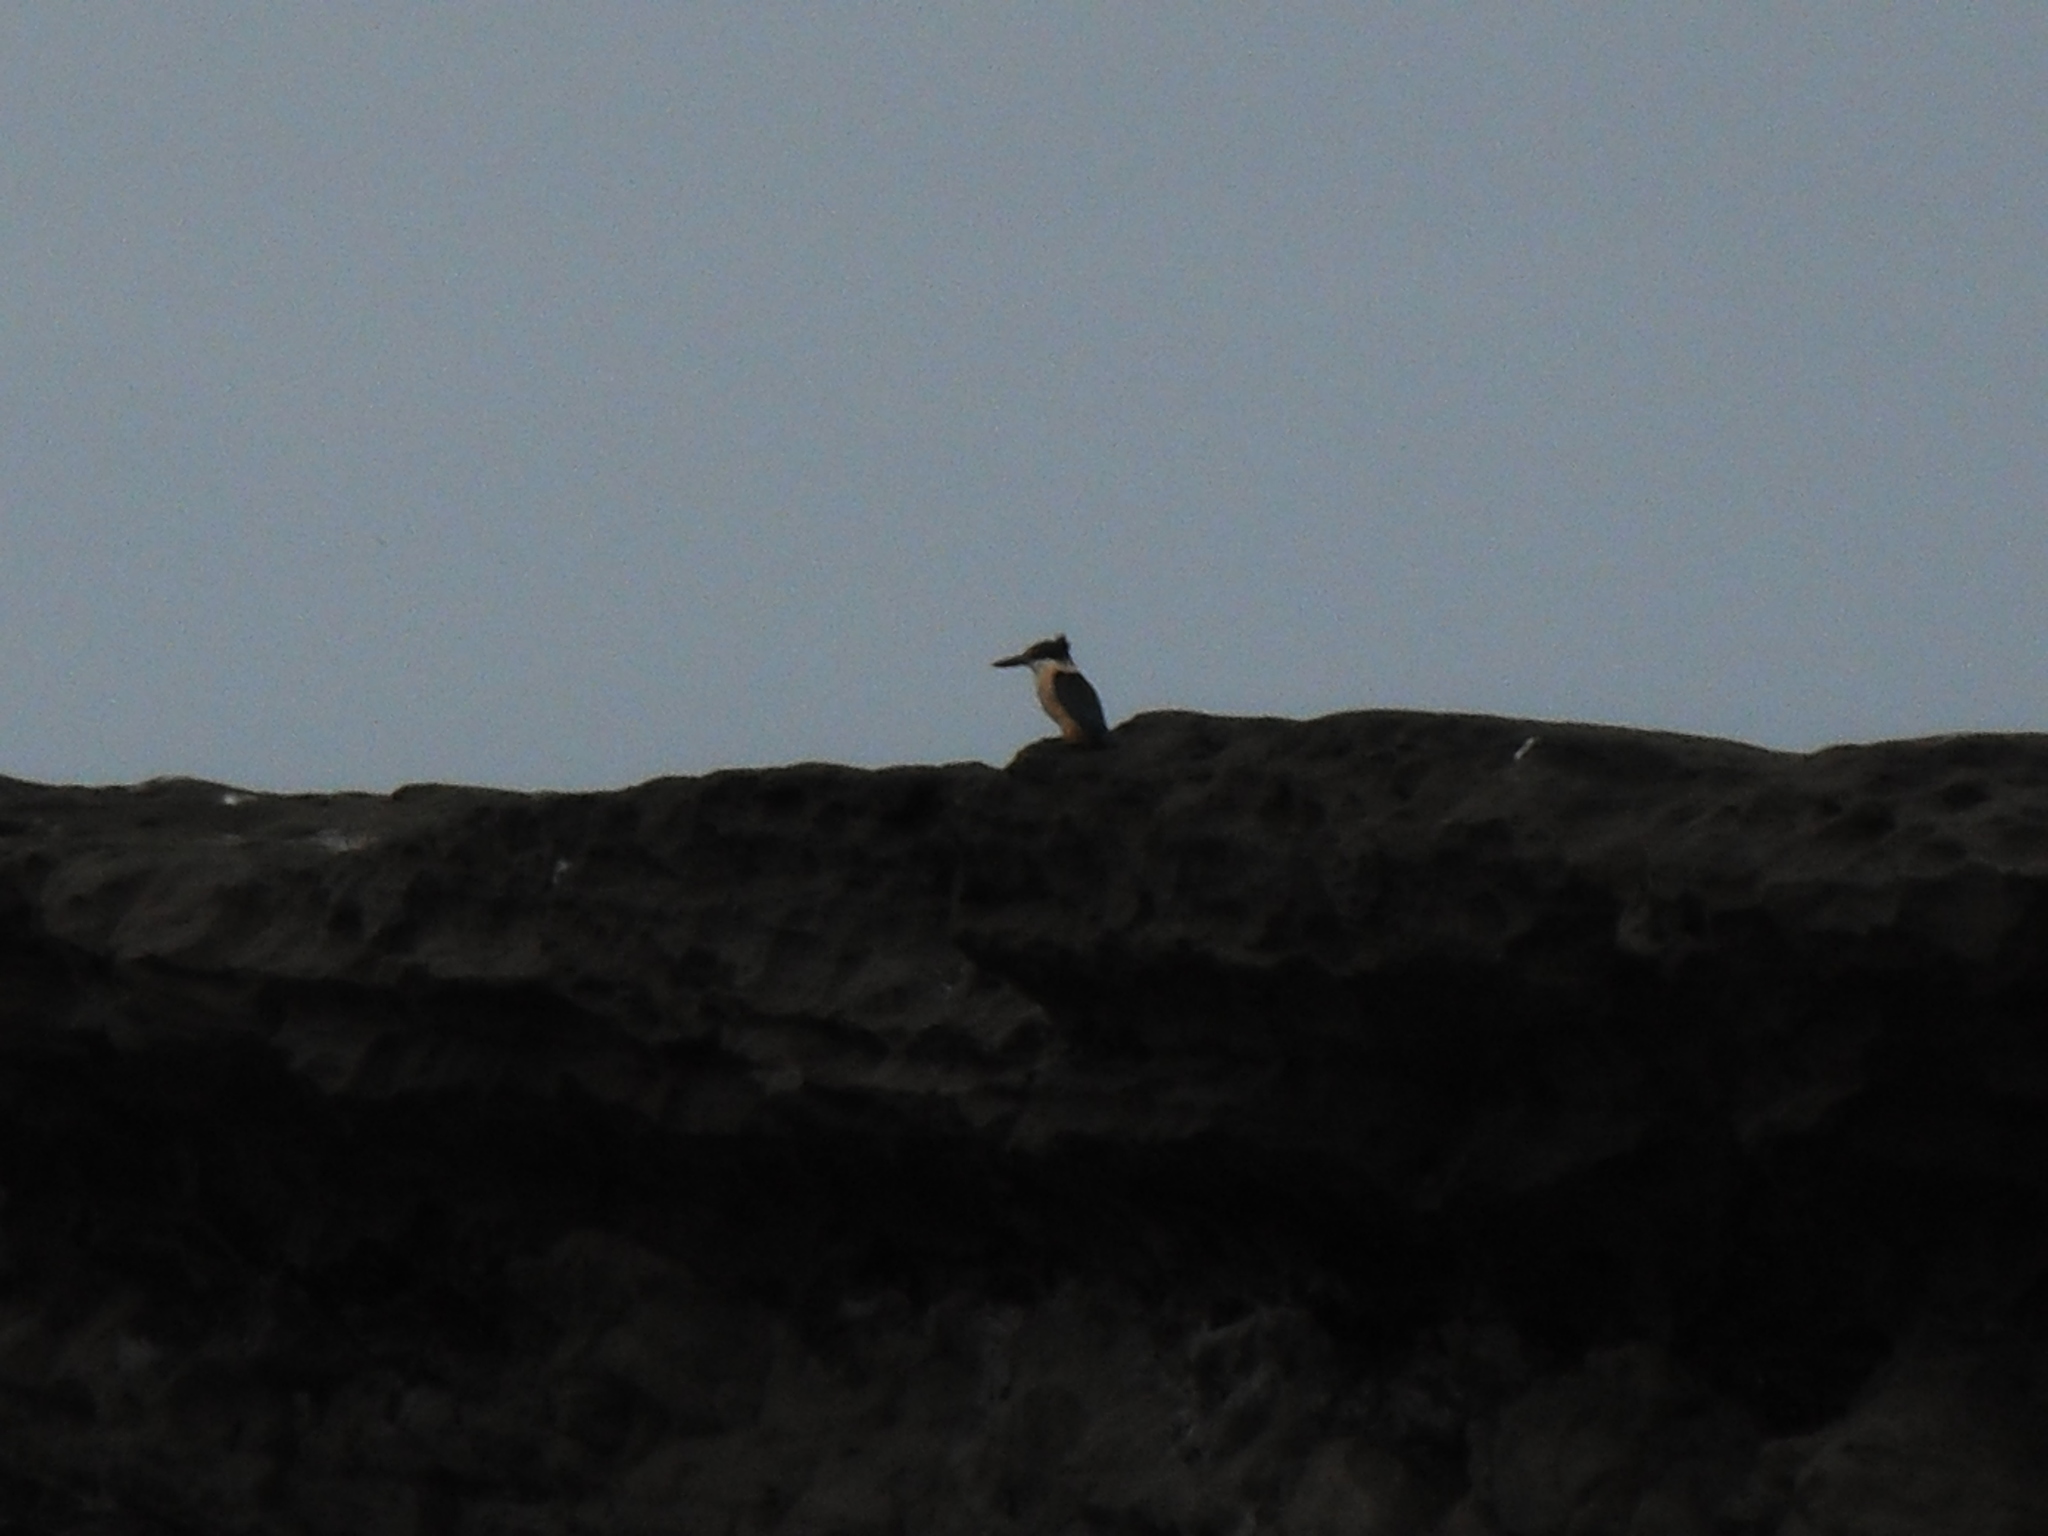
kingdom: Animalia
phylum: Chordata
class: Aves
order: Coraciiformes
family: Alcedinidae
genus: Todiramphus
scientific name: Todiramphus sanctus
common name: Sacred kingfisher
